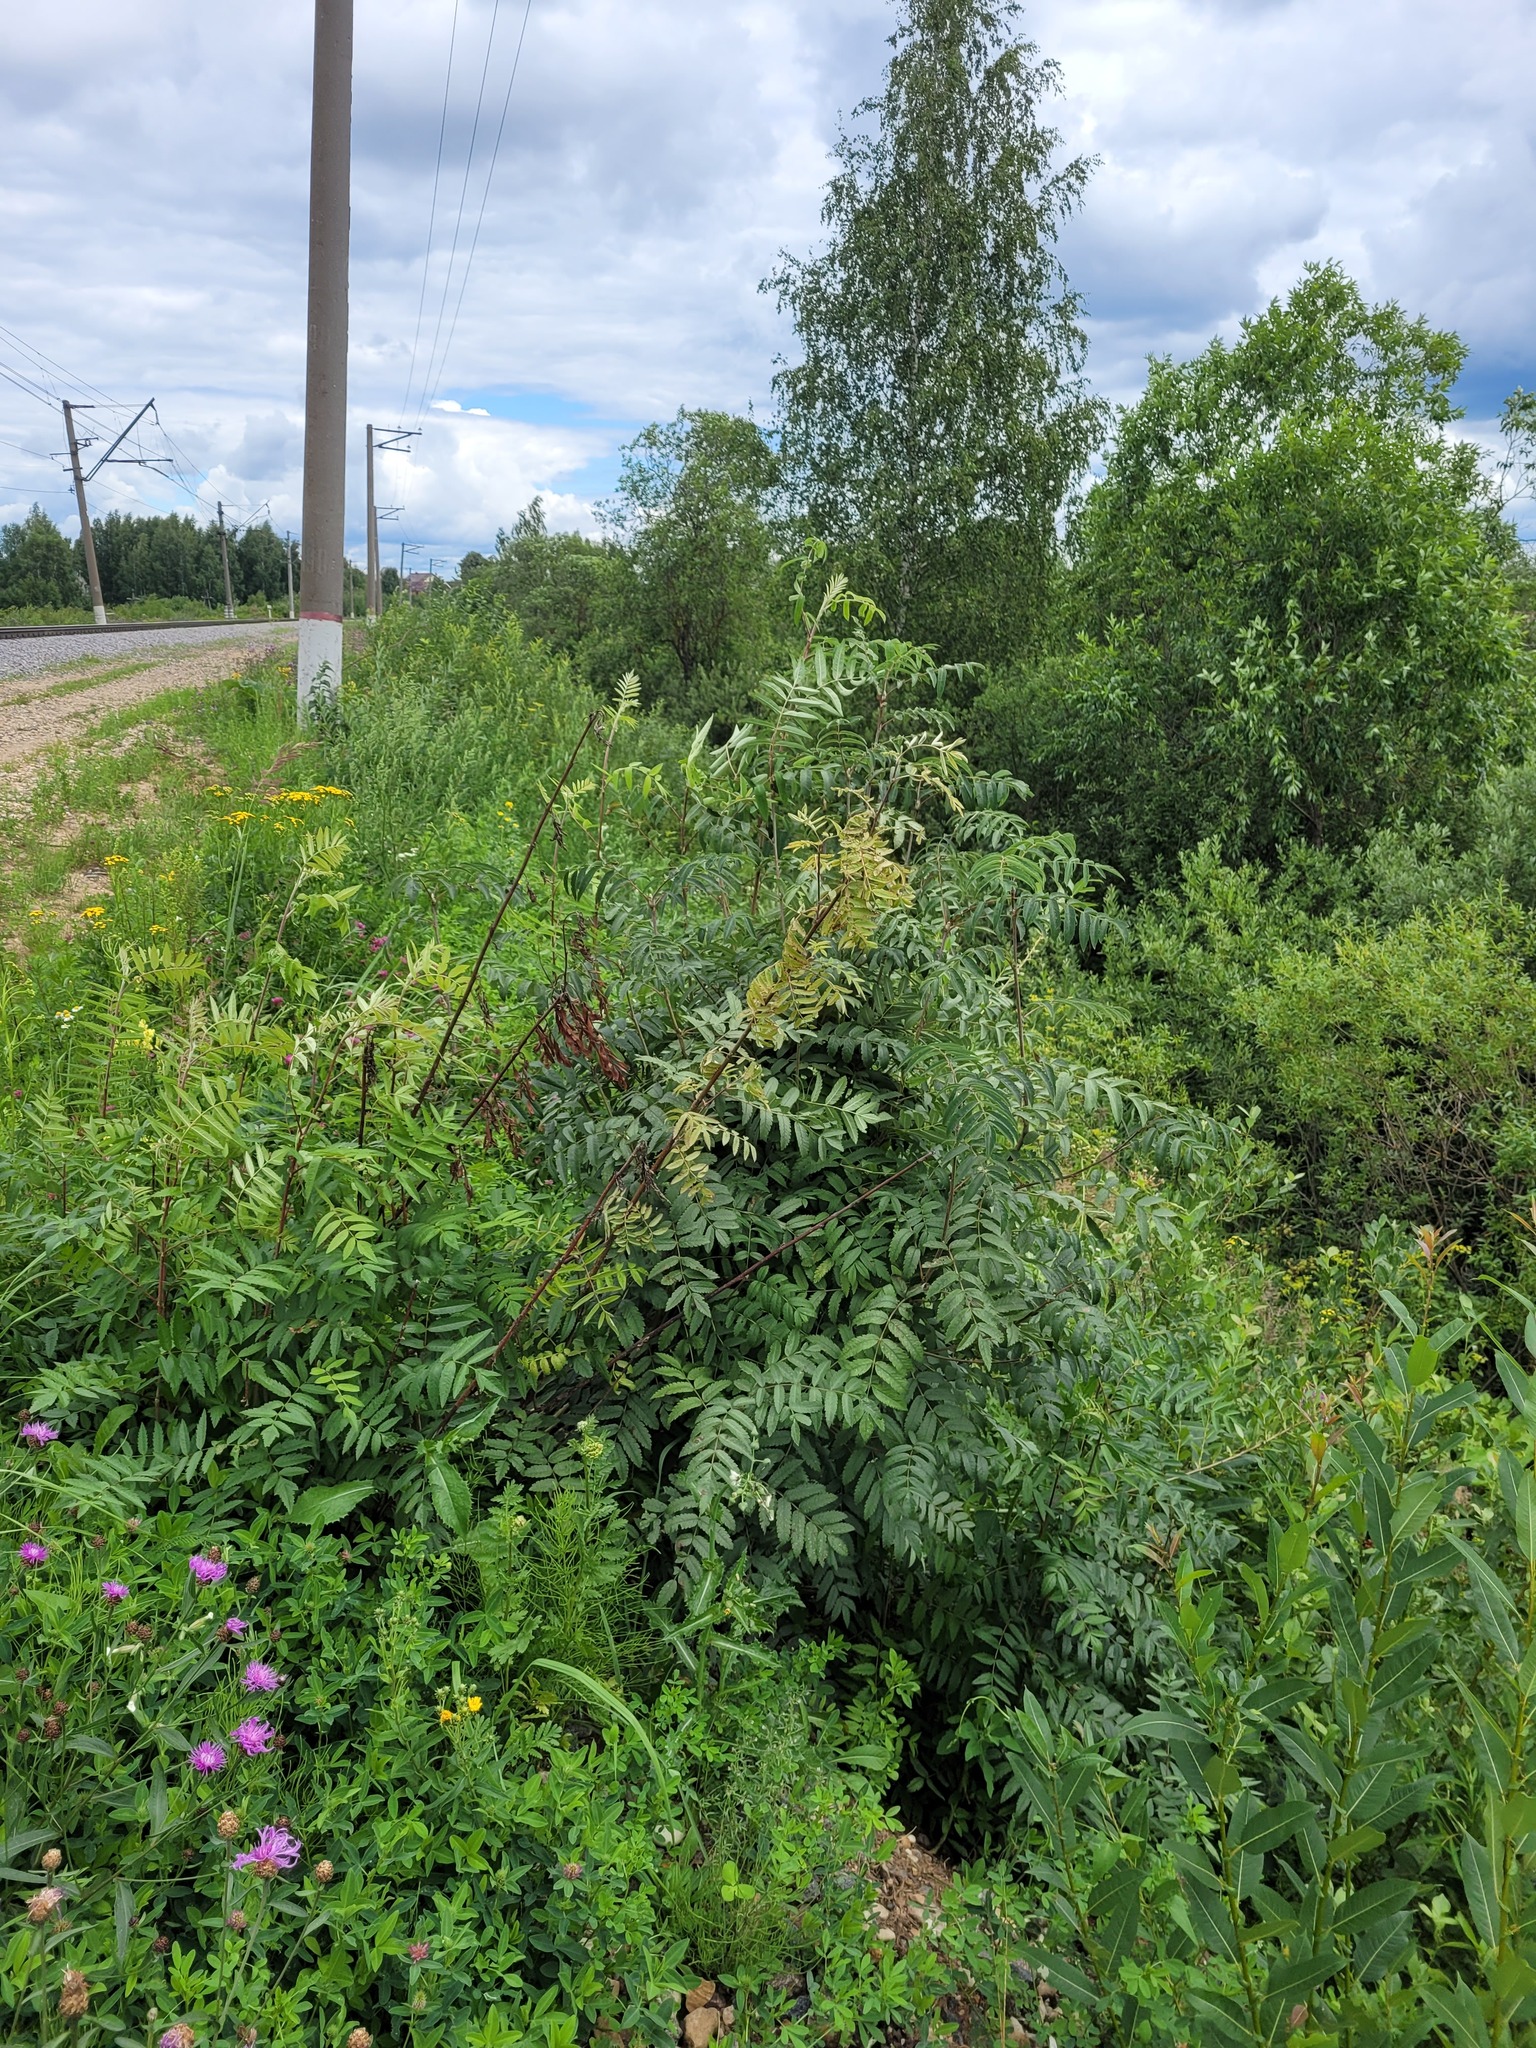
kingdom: Plantae
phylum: Tracheophyta
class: Magnoliopsida
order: Rosales
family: Rosaceae
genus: Sorbus
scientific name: Sorbus aucuparia
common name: Rowan
